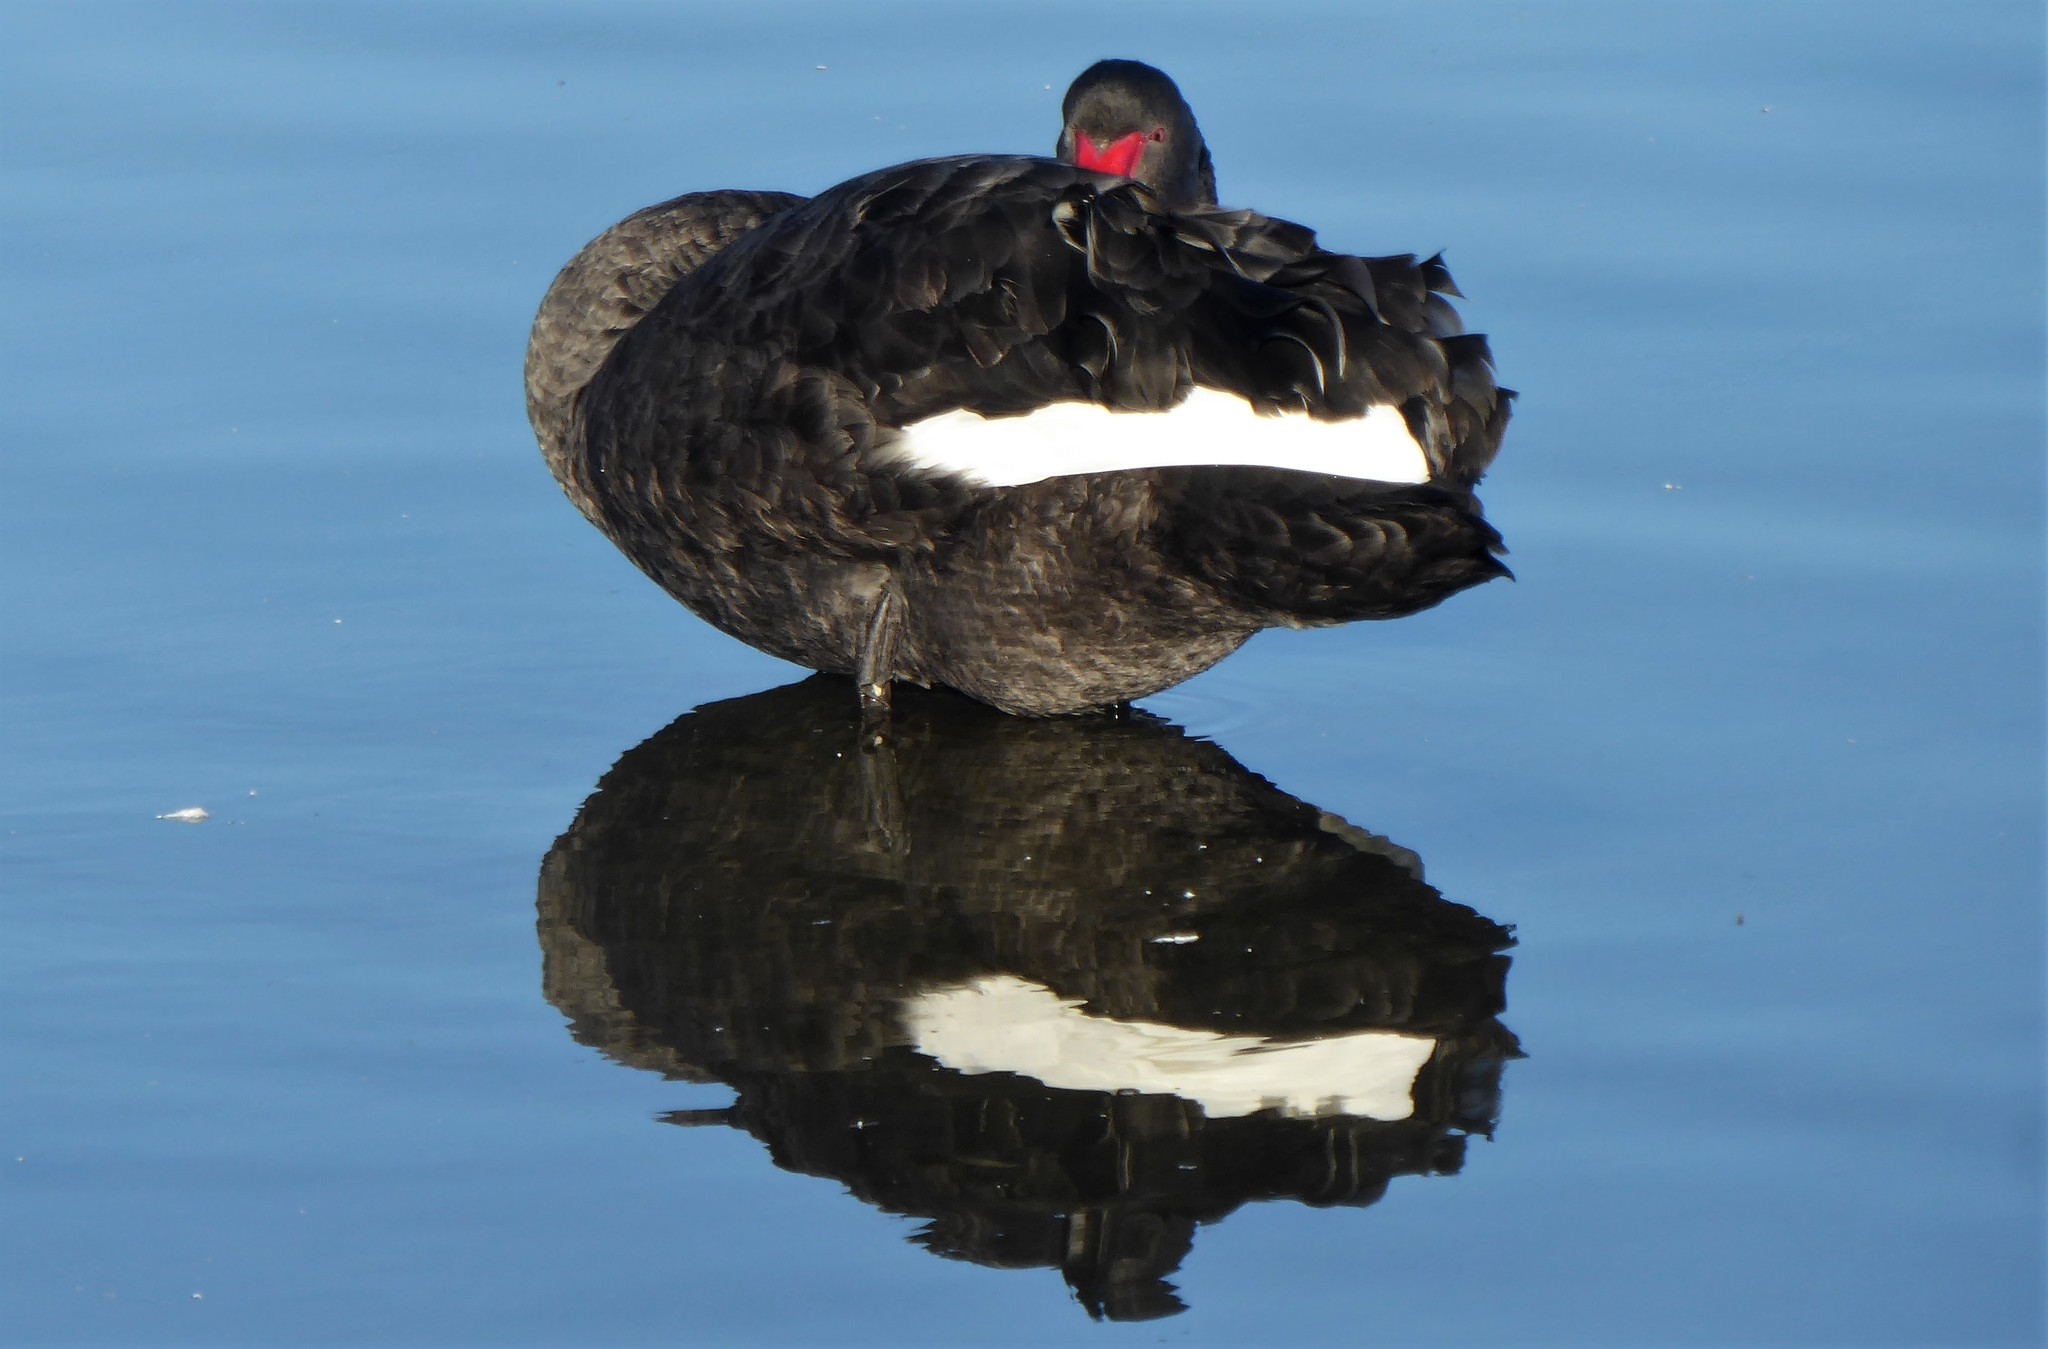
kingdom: Animalia
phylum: Chordata
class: Aves
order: Anseriformes
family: Anatidae
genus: Cygnus
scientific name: Cygnus atratus
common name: Black swan
